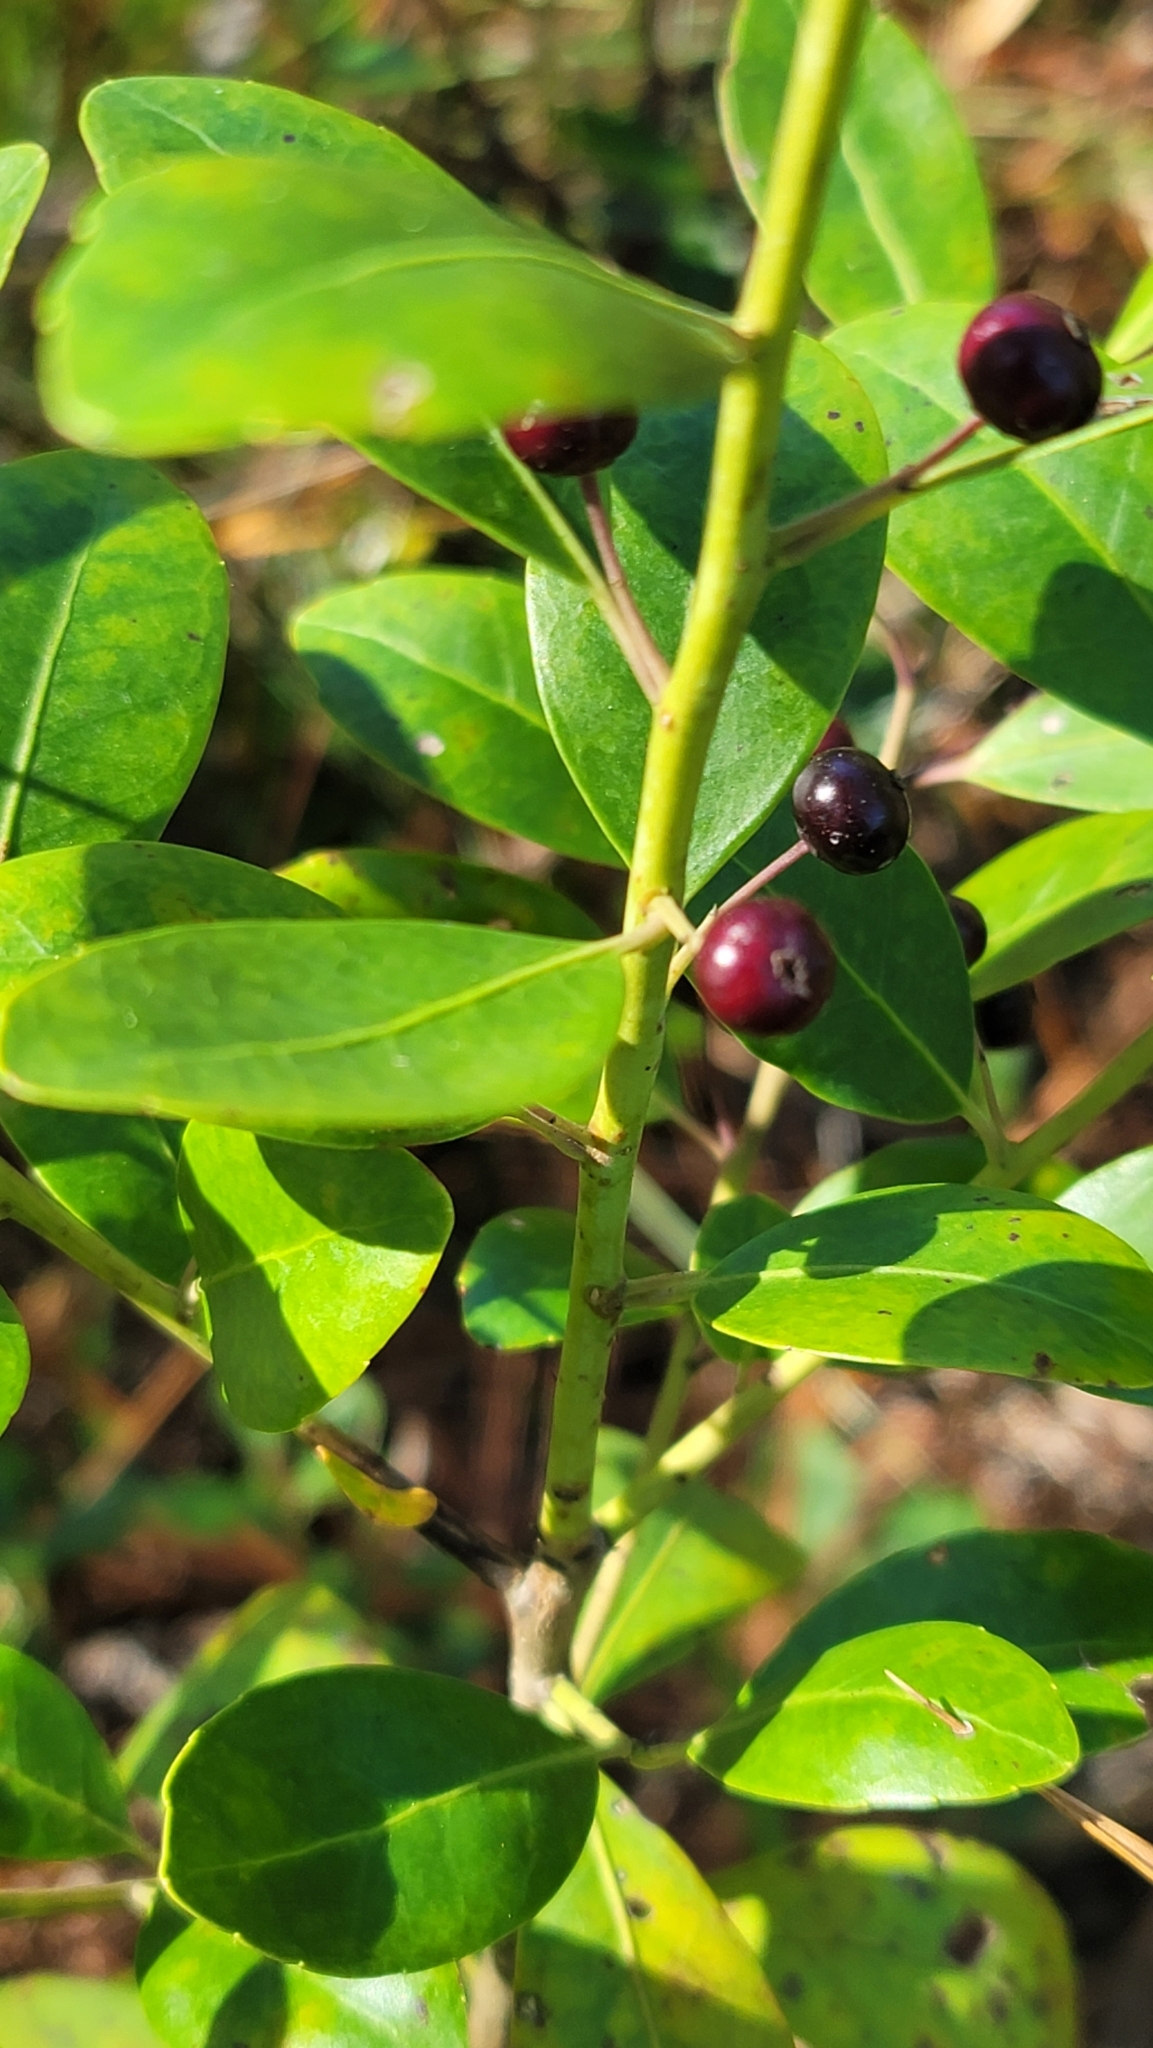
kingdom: Plantae
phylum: Tracheophyta
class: Magnoliopsida
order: Aquifoliales
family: Aquifoliaceae
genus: Ilex
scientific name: Ilex glabra
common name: Bitter gallberry
